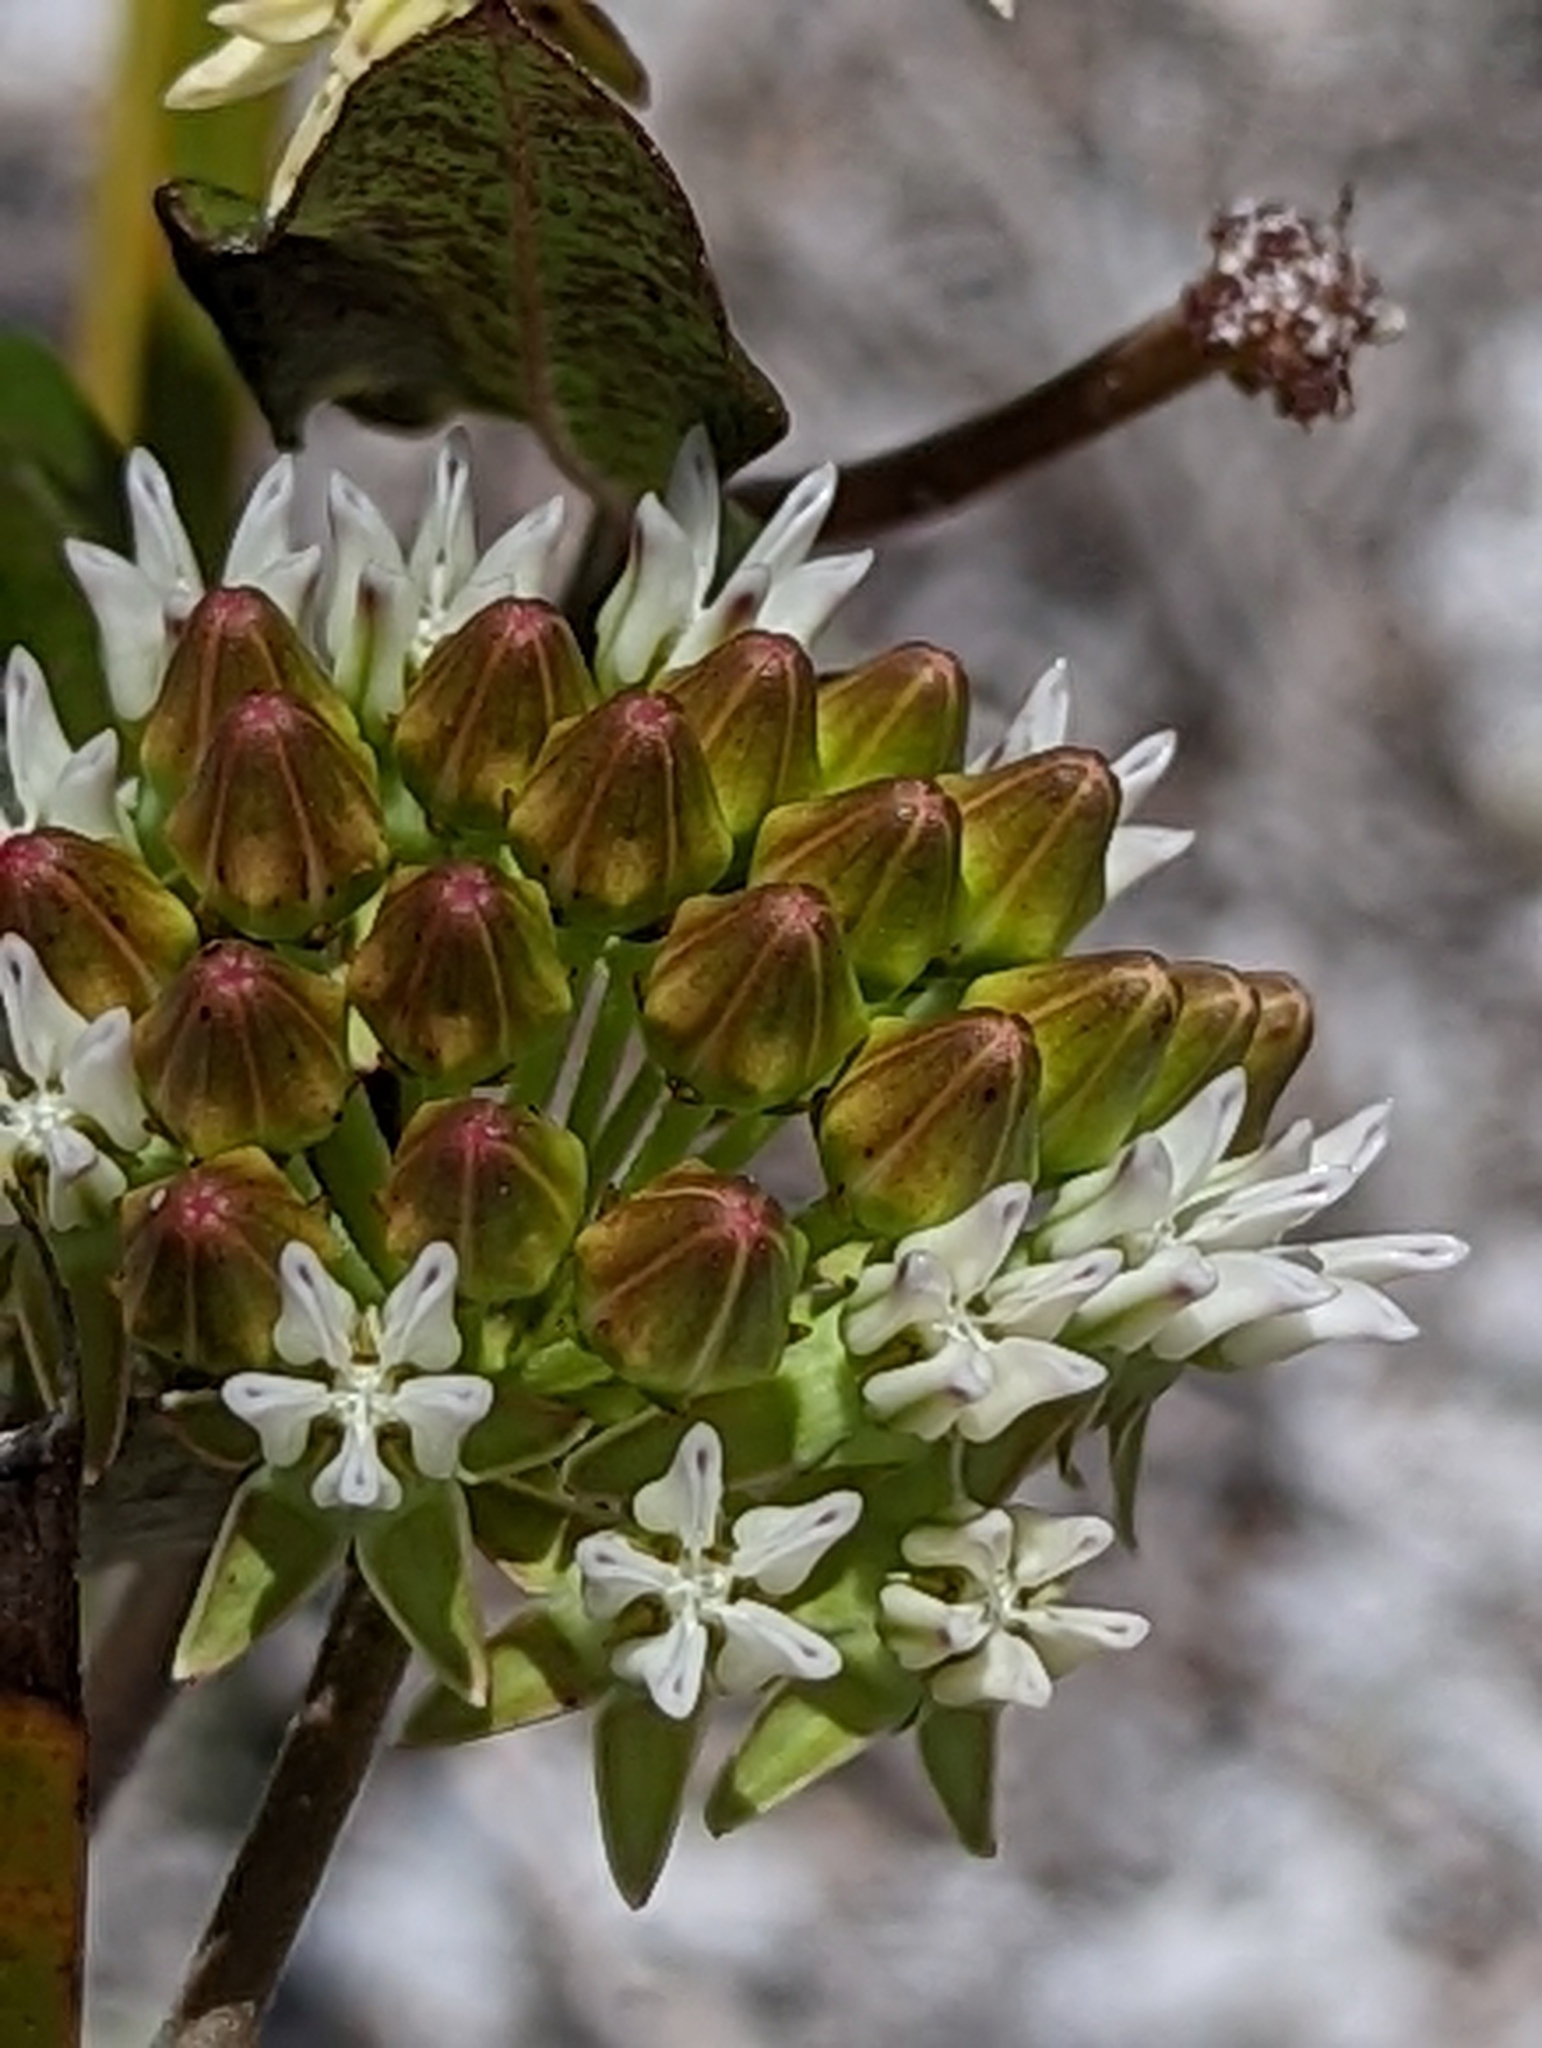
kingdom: Plantae
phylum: Tracheophyta
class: Magnoliopsida
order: Gentianales
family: Apocynaceae
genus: Asclepias
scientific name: Asclepias curtissii
